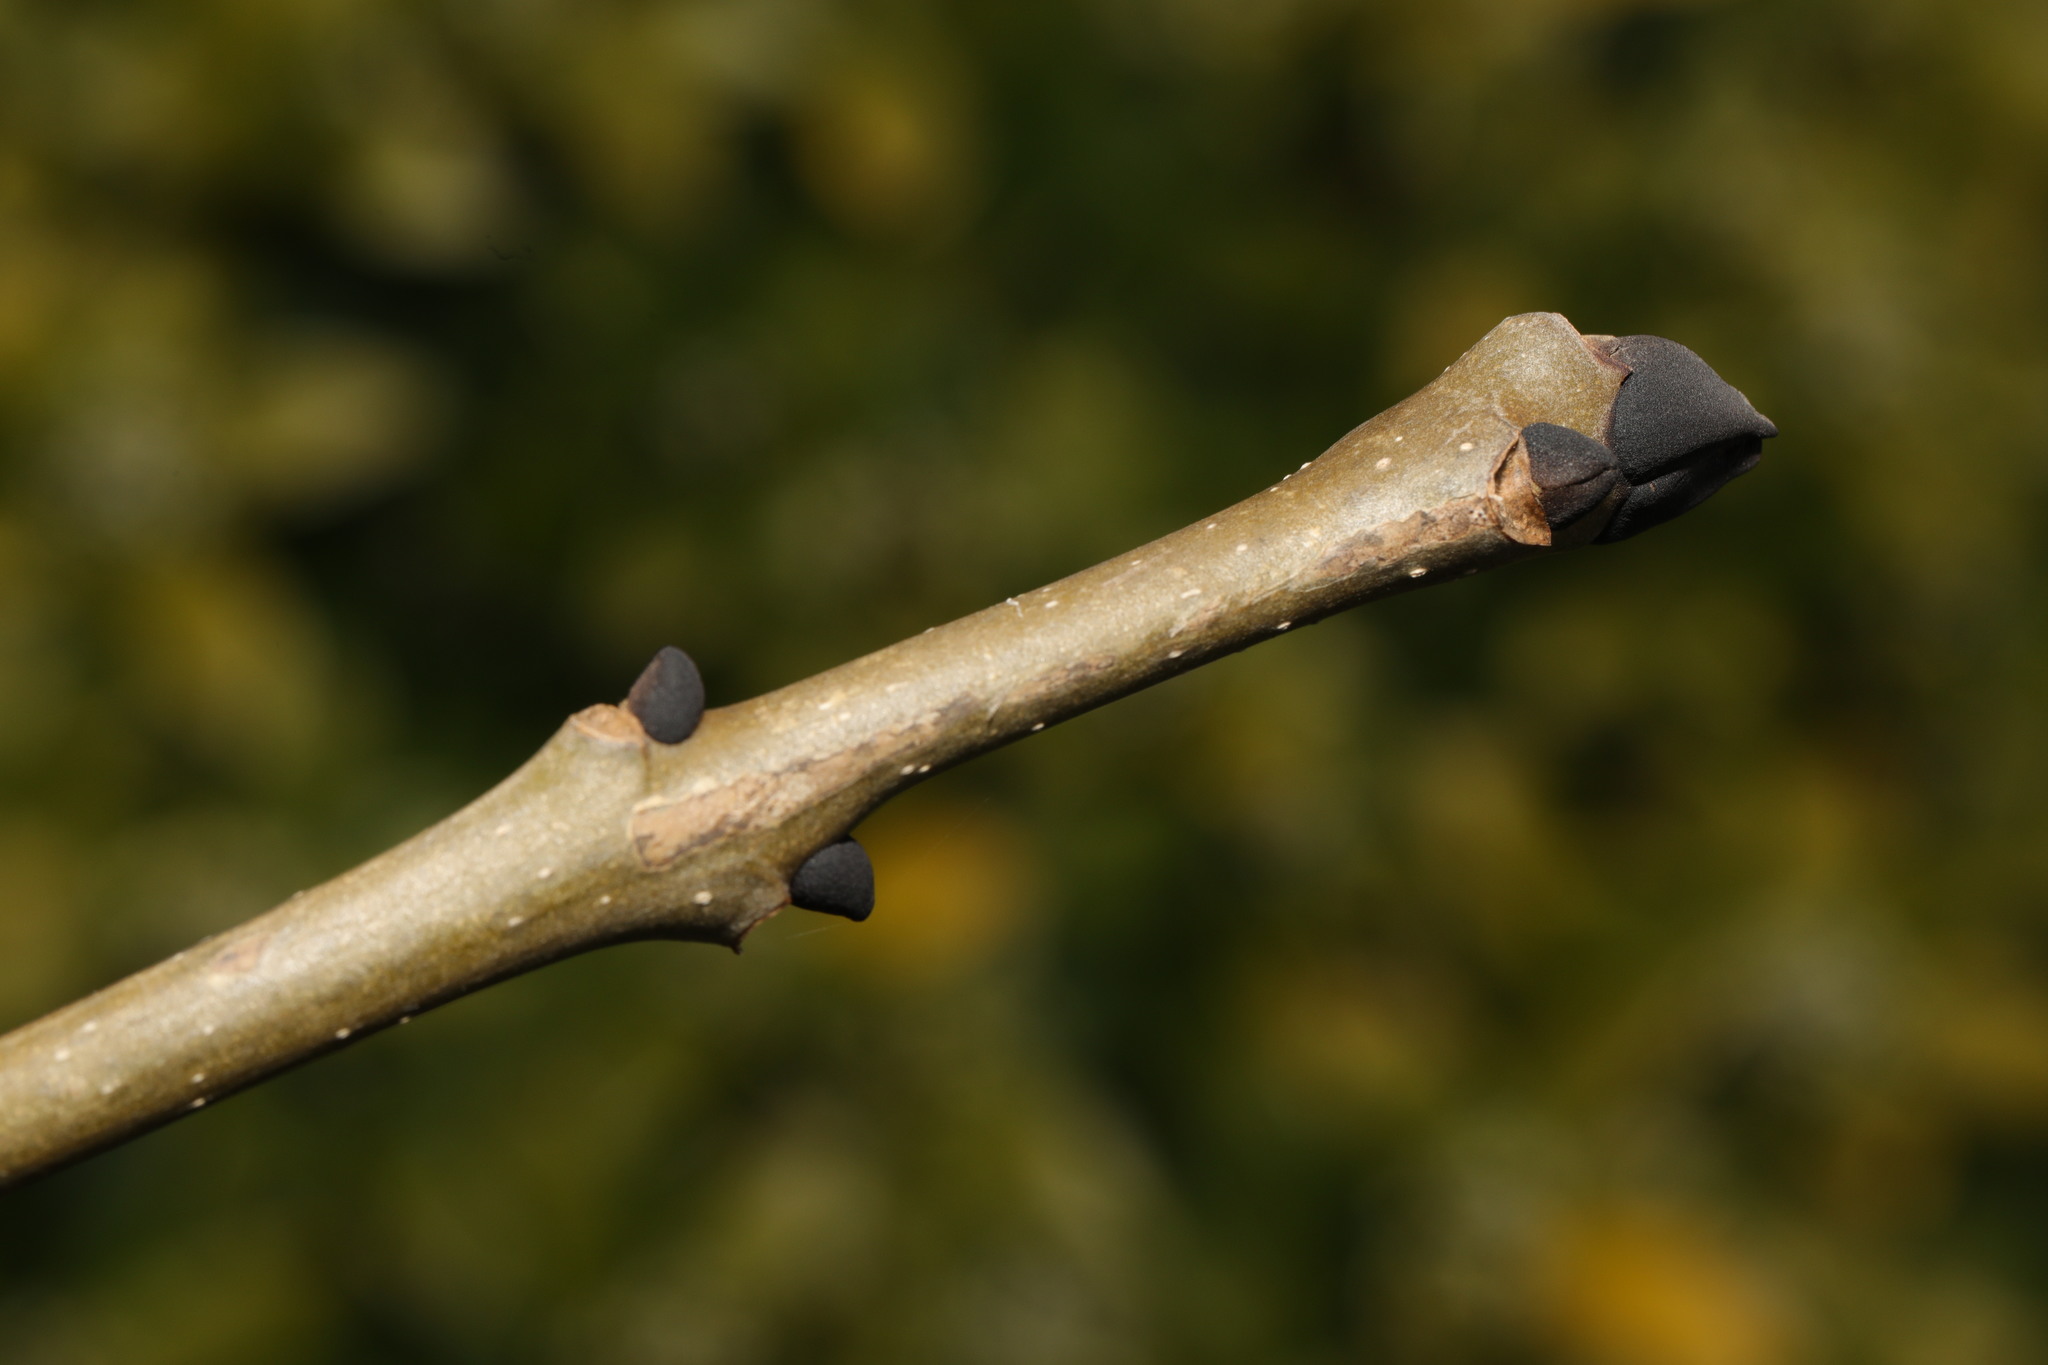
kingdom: Plantae
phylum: Tracheophyta
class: Magnoliopsida
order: Lamiales
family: Oleaceae
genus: Fraxinus
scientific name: Fraxinus excelsior
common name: European ash
